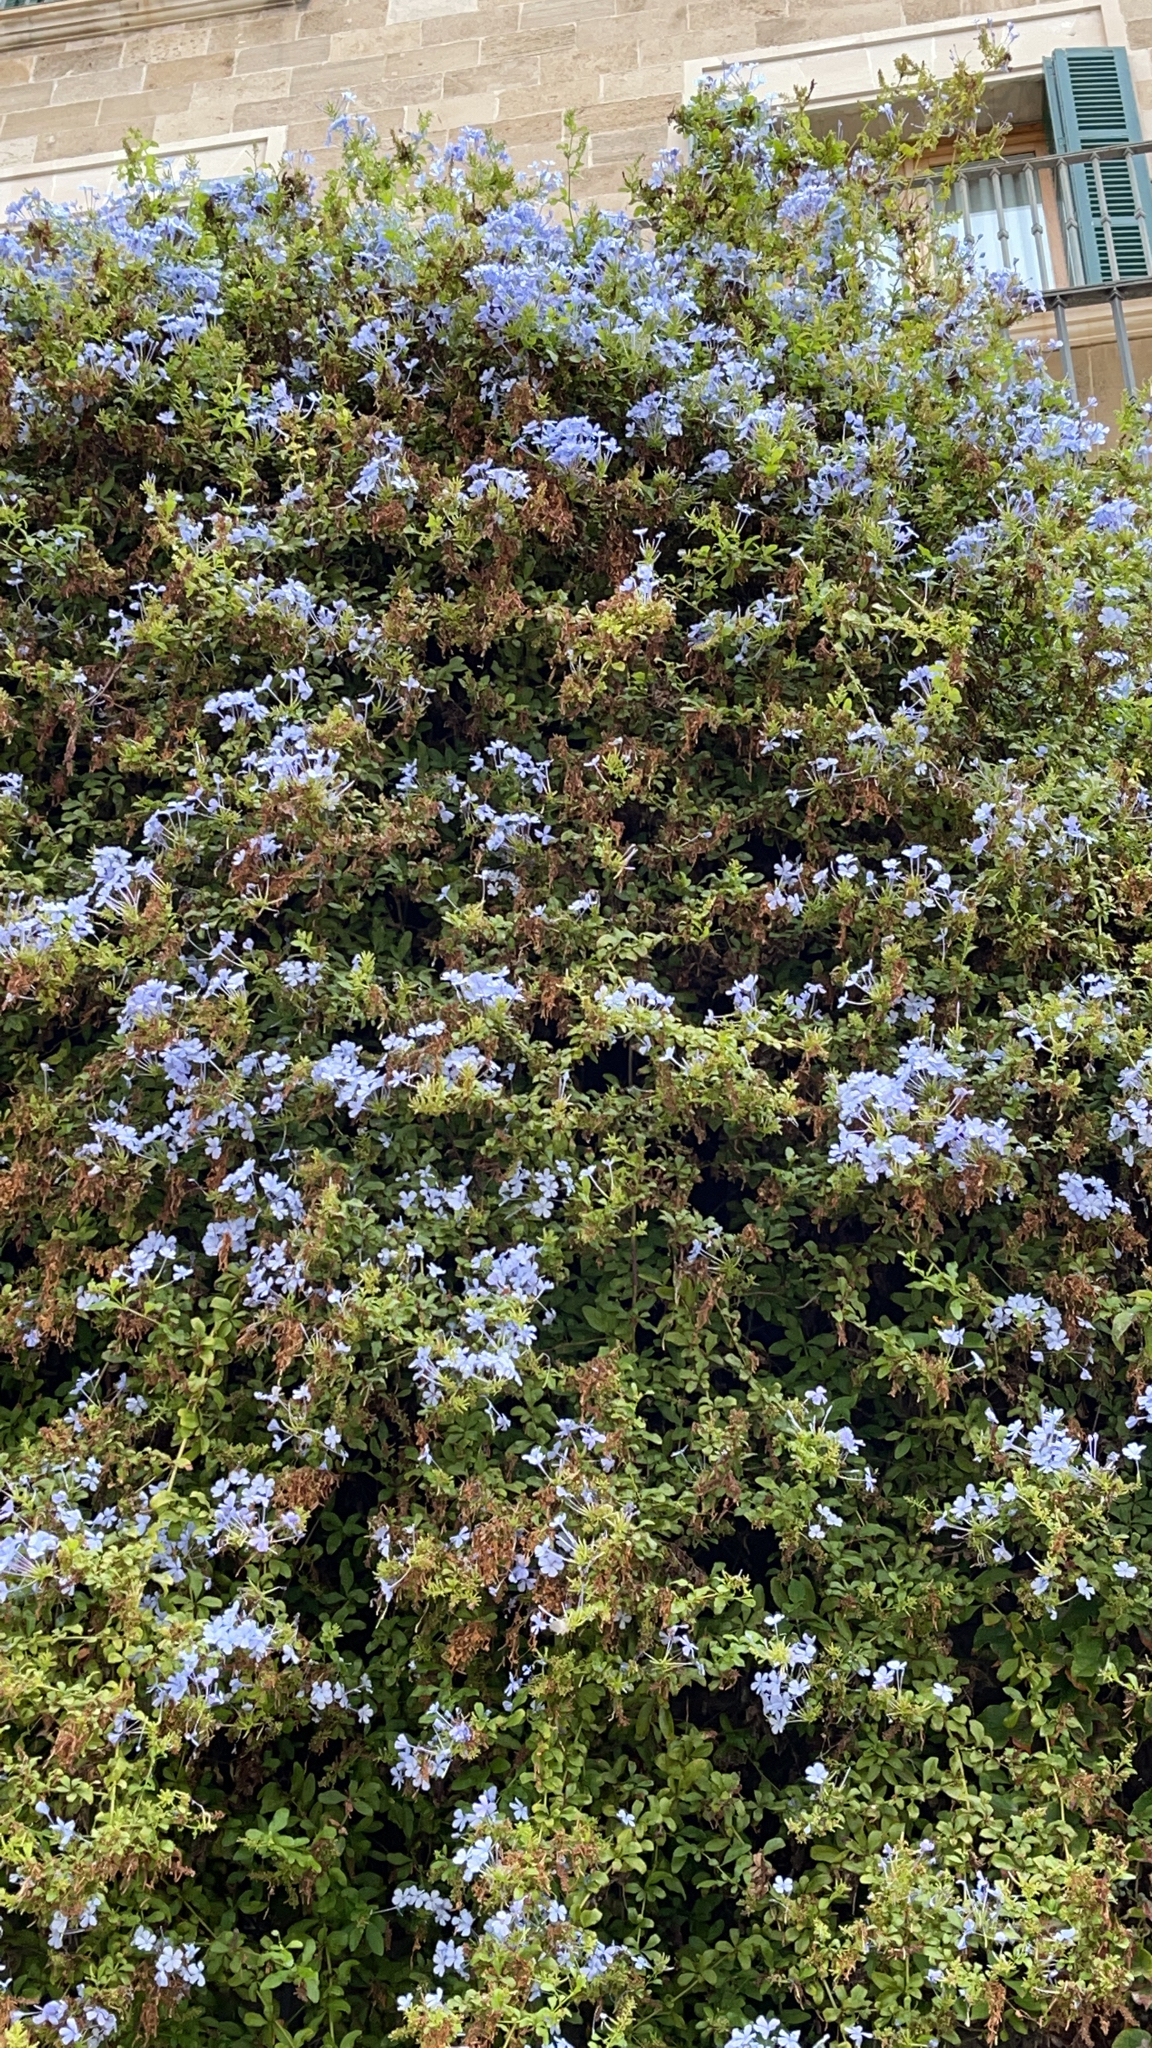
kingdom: Plantae
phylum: Tracheophyta
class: Magnoliopsida
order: Caryophyllales
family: Plumbaginaceae
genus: Plumbago
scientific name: Plumbago auriculata
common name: Cape leadwort
